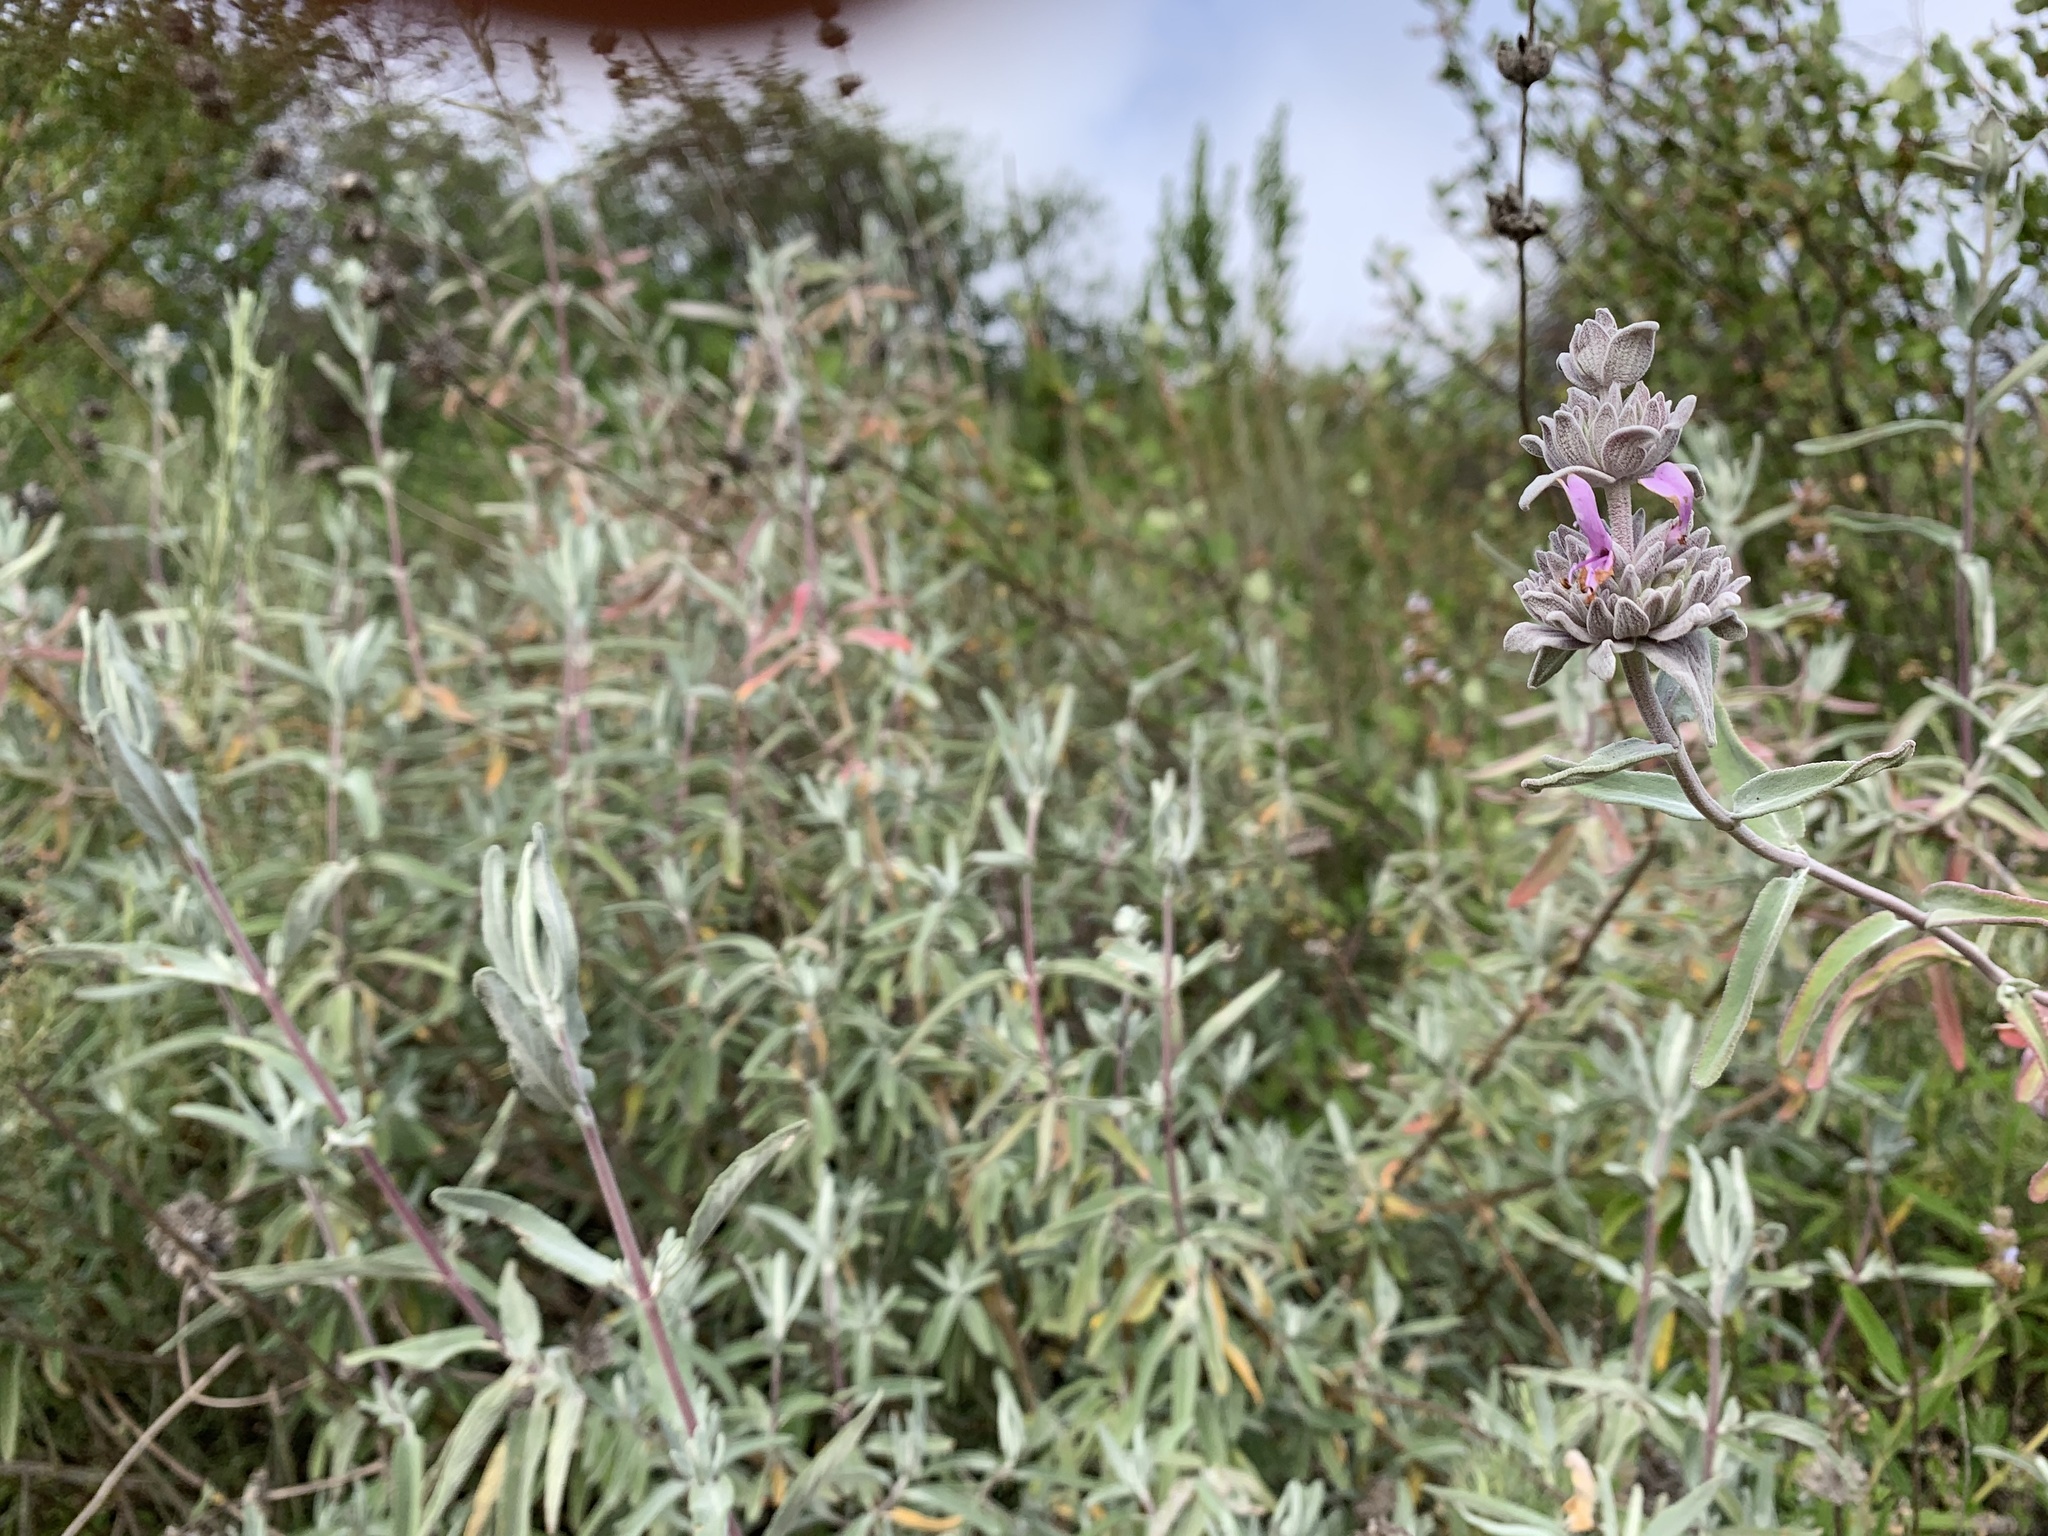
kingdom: Plantae
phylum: Tracheophyta
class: Magnoliopsida
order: Lamiales
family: Lamiaceae
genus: Salvia
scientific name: Salvia leucophylla
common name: Purple sage
